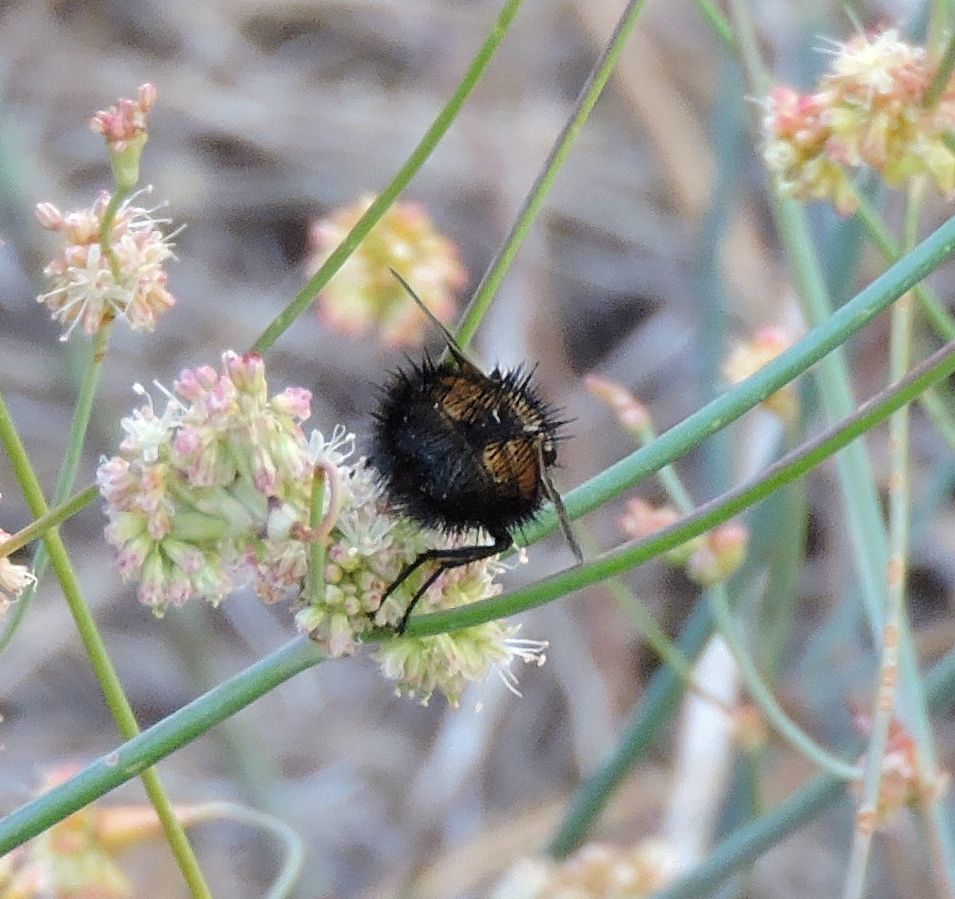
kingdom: Animalia
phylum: Arthropoda
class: Insecta
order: Diptera
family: Tachinidae
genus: Paradejeania
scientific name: Paradejeania rutilioides
